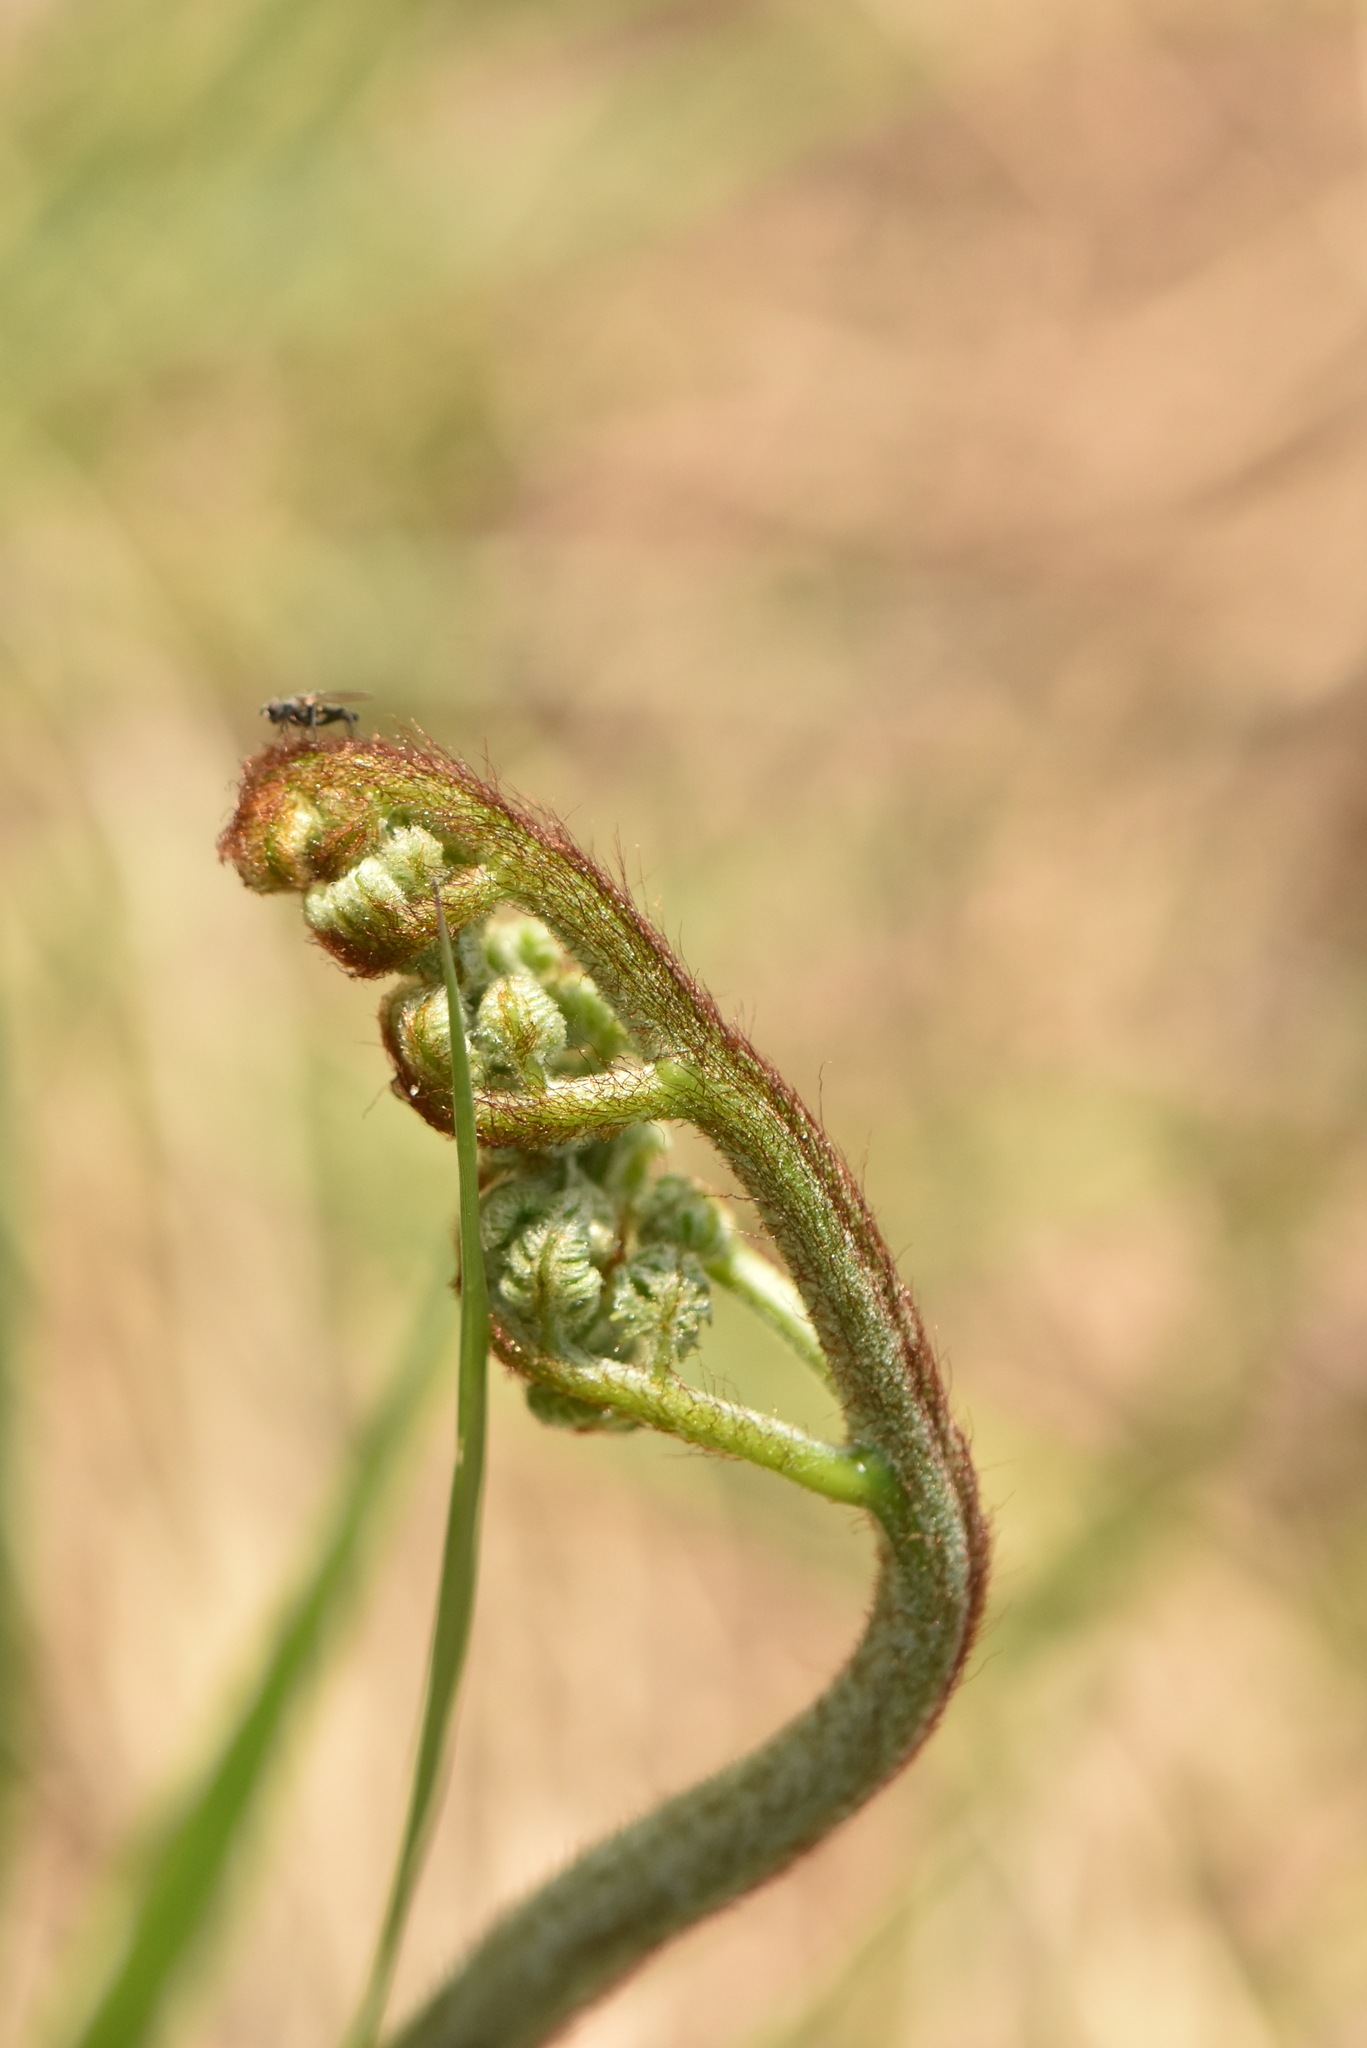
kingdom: Plantae
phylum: Tracheophyta
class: Polypodiopsida
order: Polypodiales
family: Dennstaedtiaceae
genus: Pteridium
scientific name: Pteridium aquilinum
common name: Bracken
